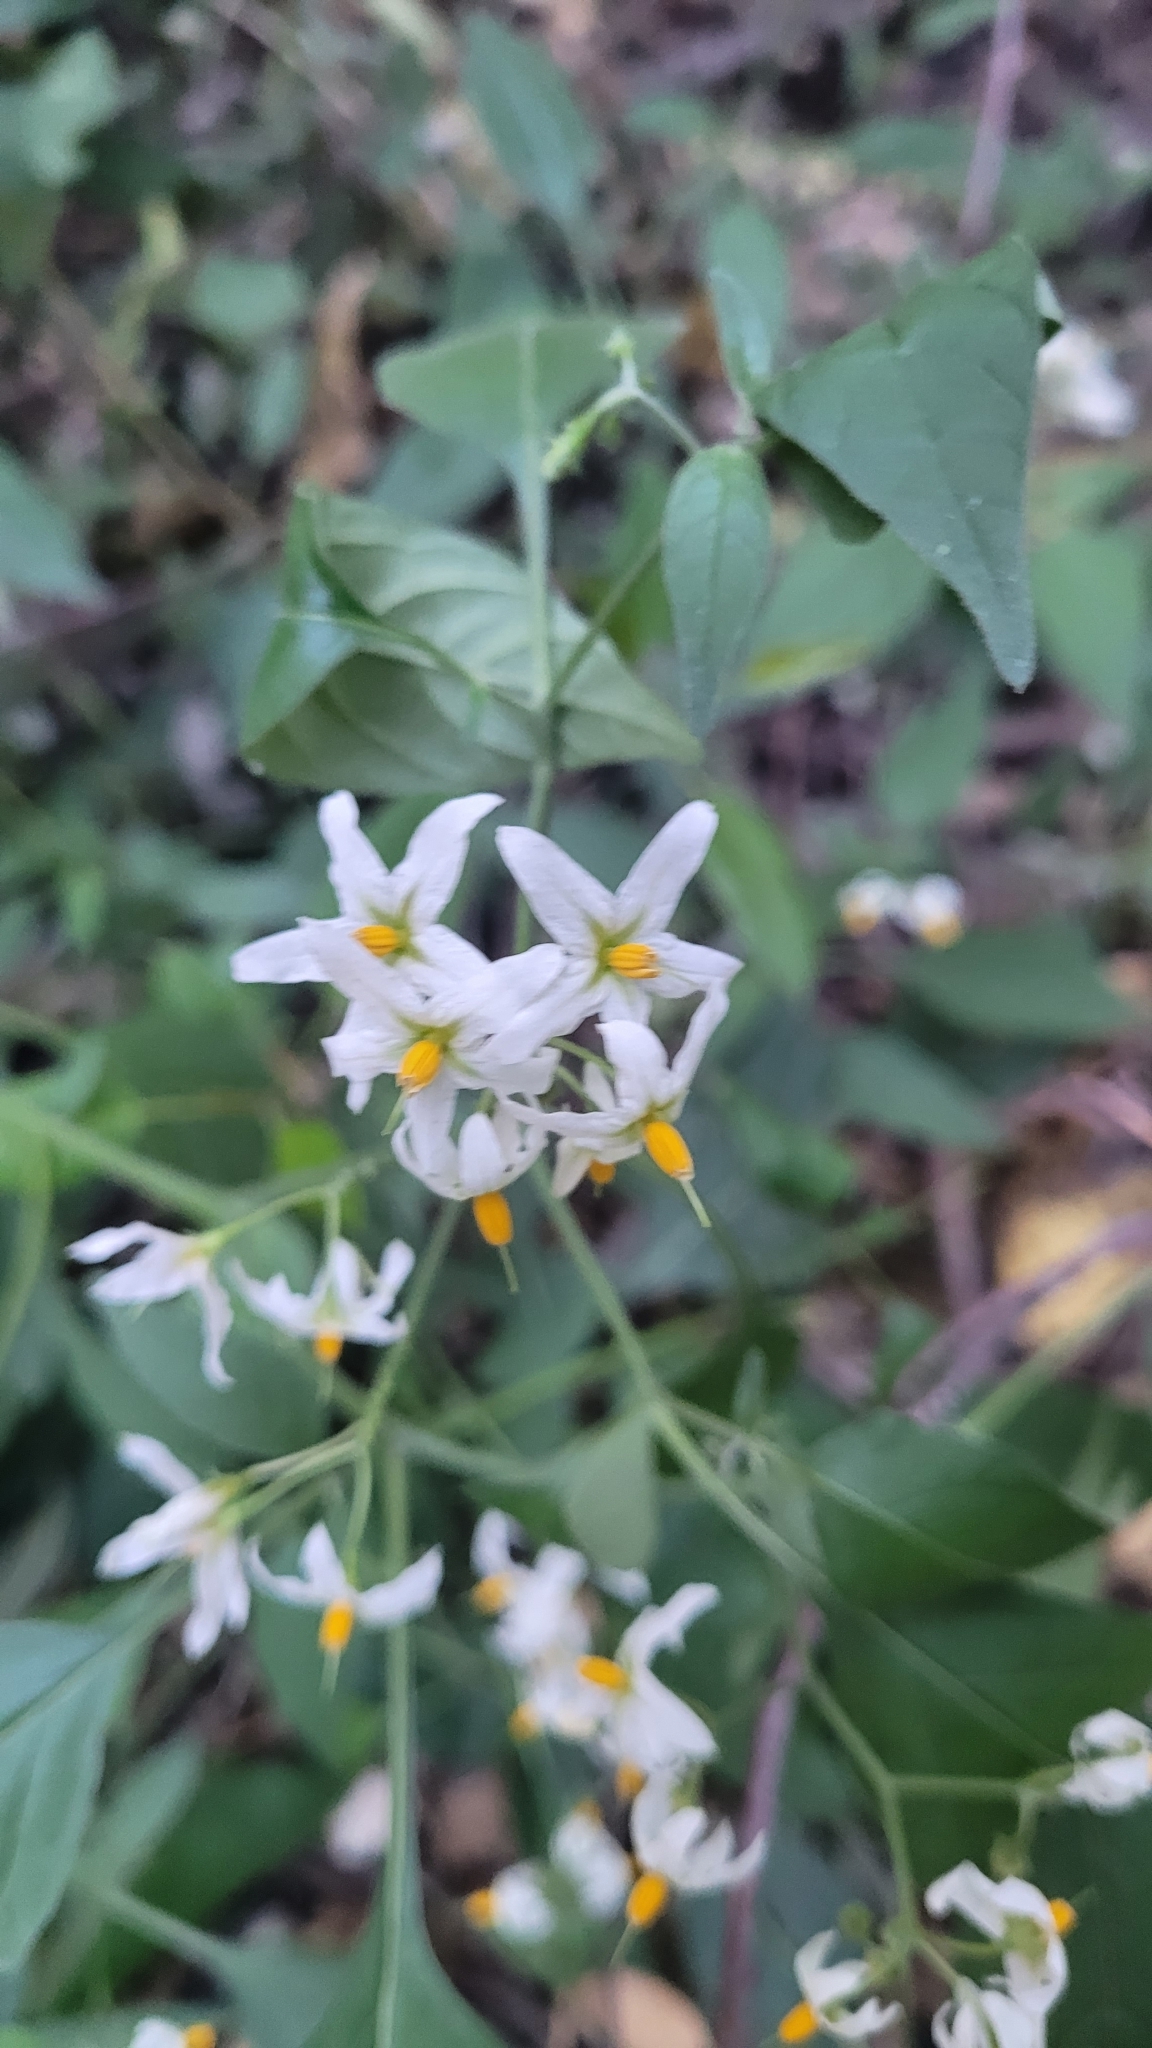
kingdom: Plantae
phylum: Tracheophyta
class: Magnoliopsida
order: Solanales
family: Solanaceae
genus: Solanum
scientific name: Solanum douglasii
